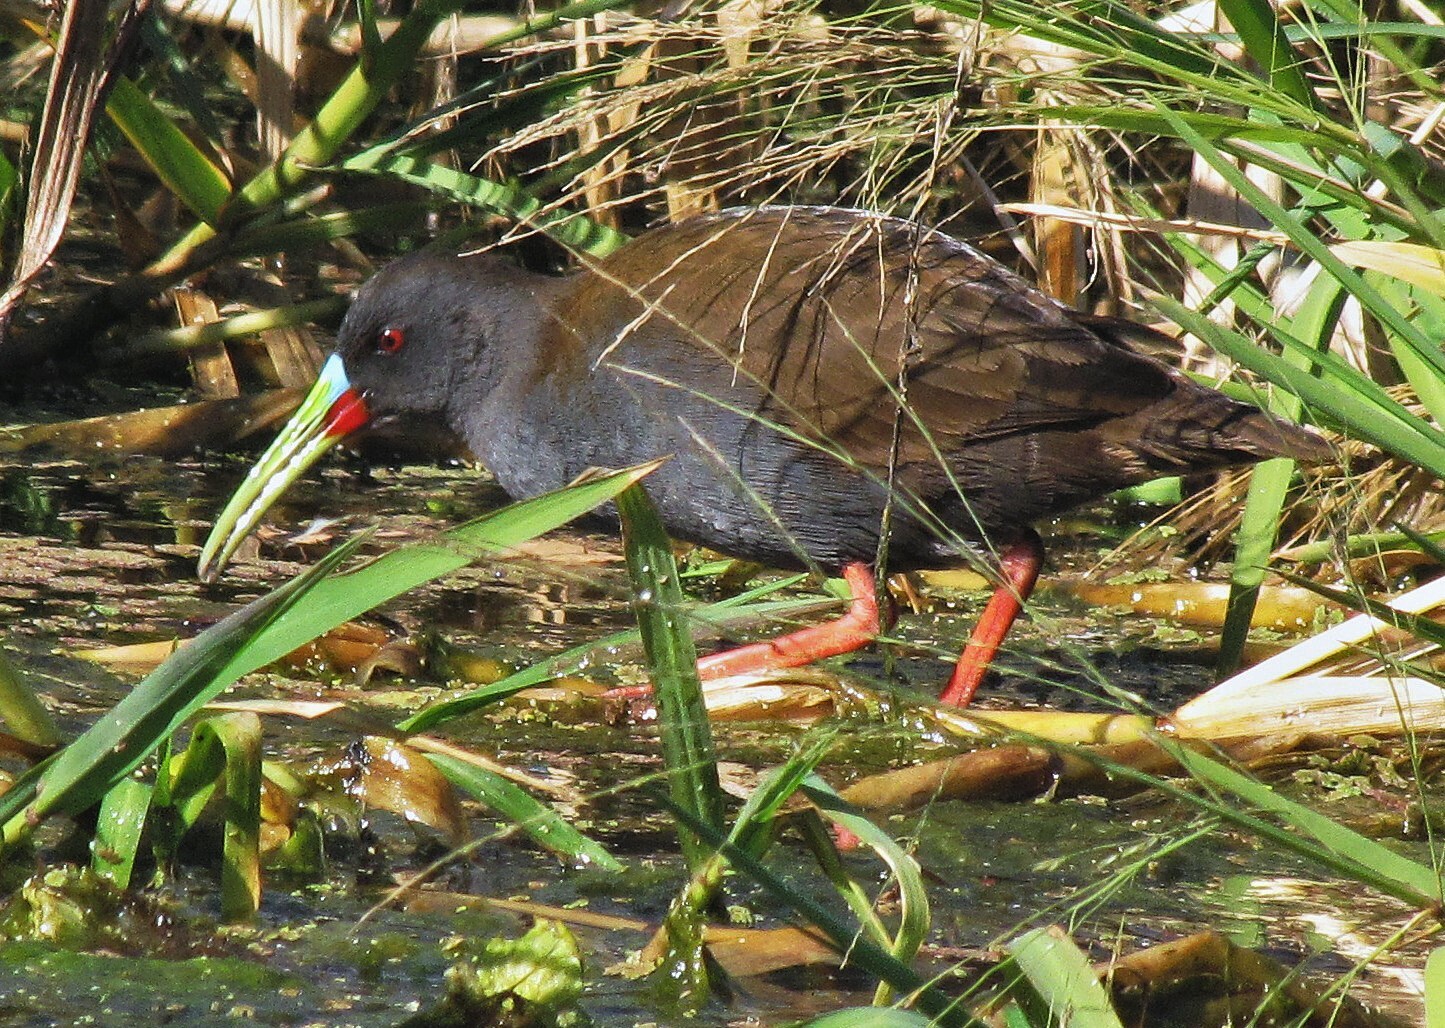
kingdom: Animalia
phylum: Chordata
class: Aves
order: Gruiformes
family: Rallidae
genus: Pardirallus
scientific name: Pardirallus sanguinolentus
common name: Plumbeous rail
